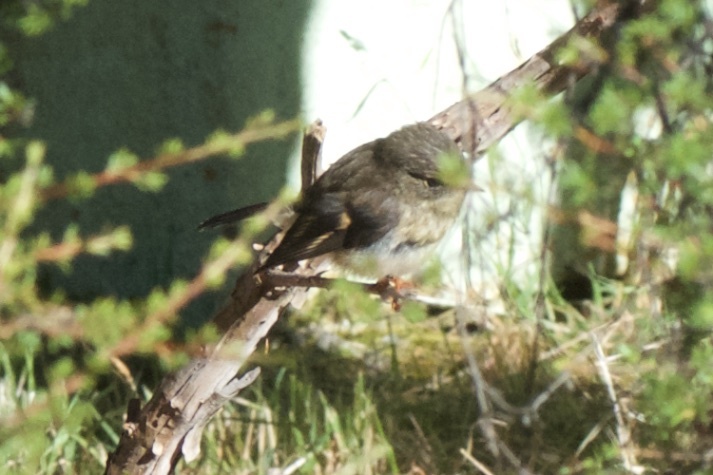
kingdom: Animalia
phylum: Chordata
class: Aves
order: Passeriformes
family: Petroicidae
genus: Petroica
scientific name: Petroica macrocephala
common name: Tomtit
